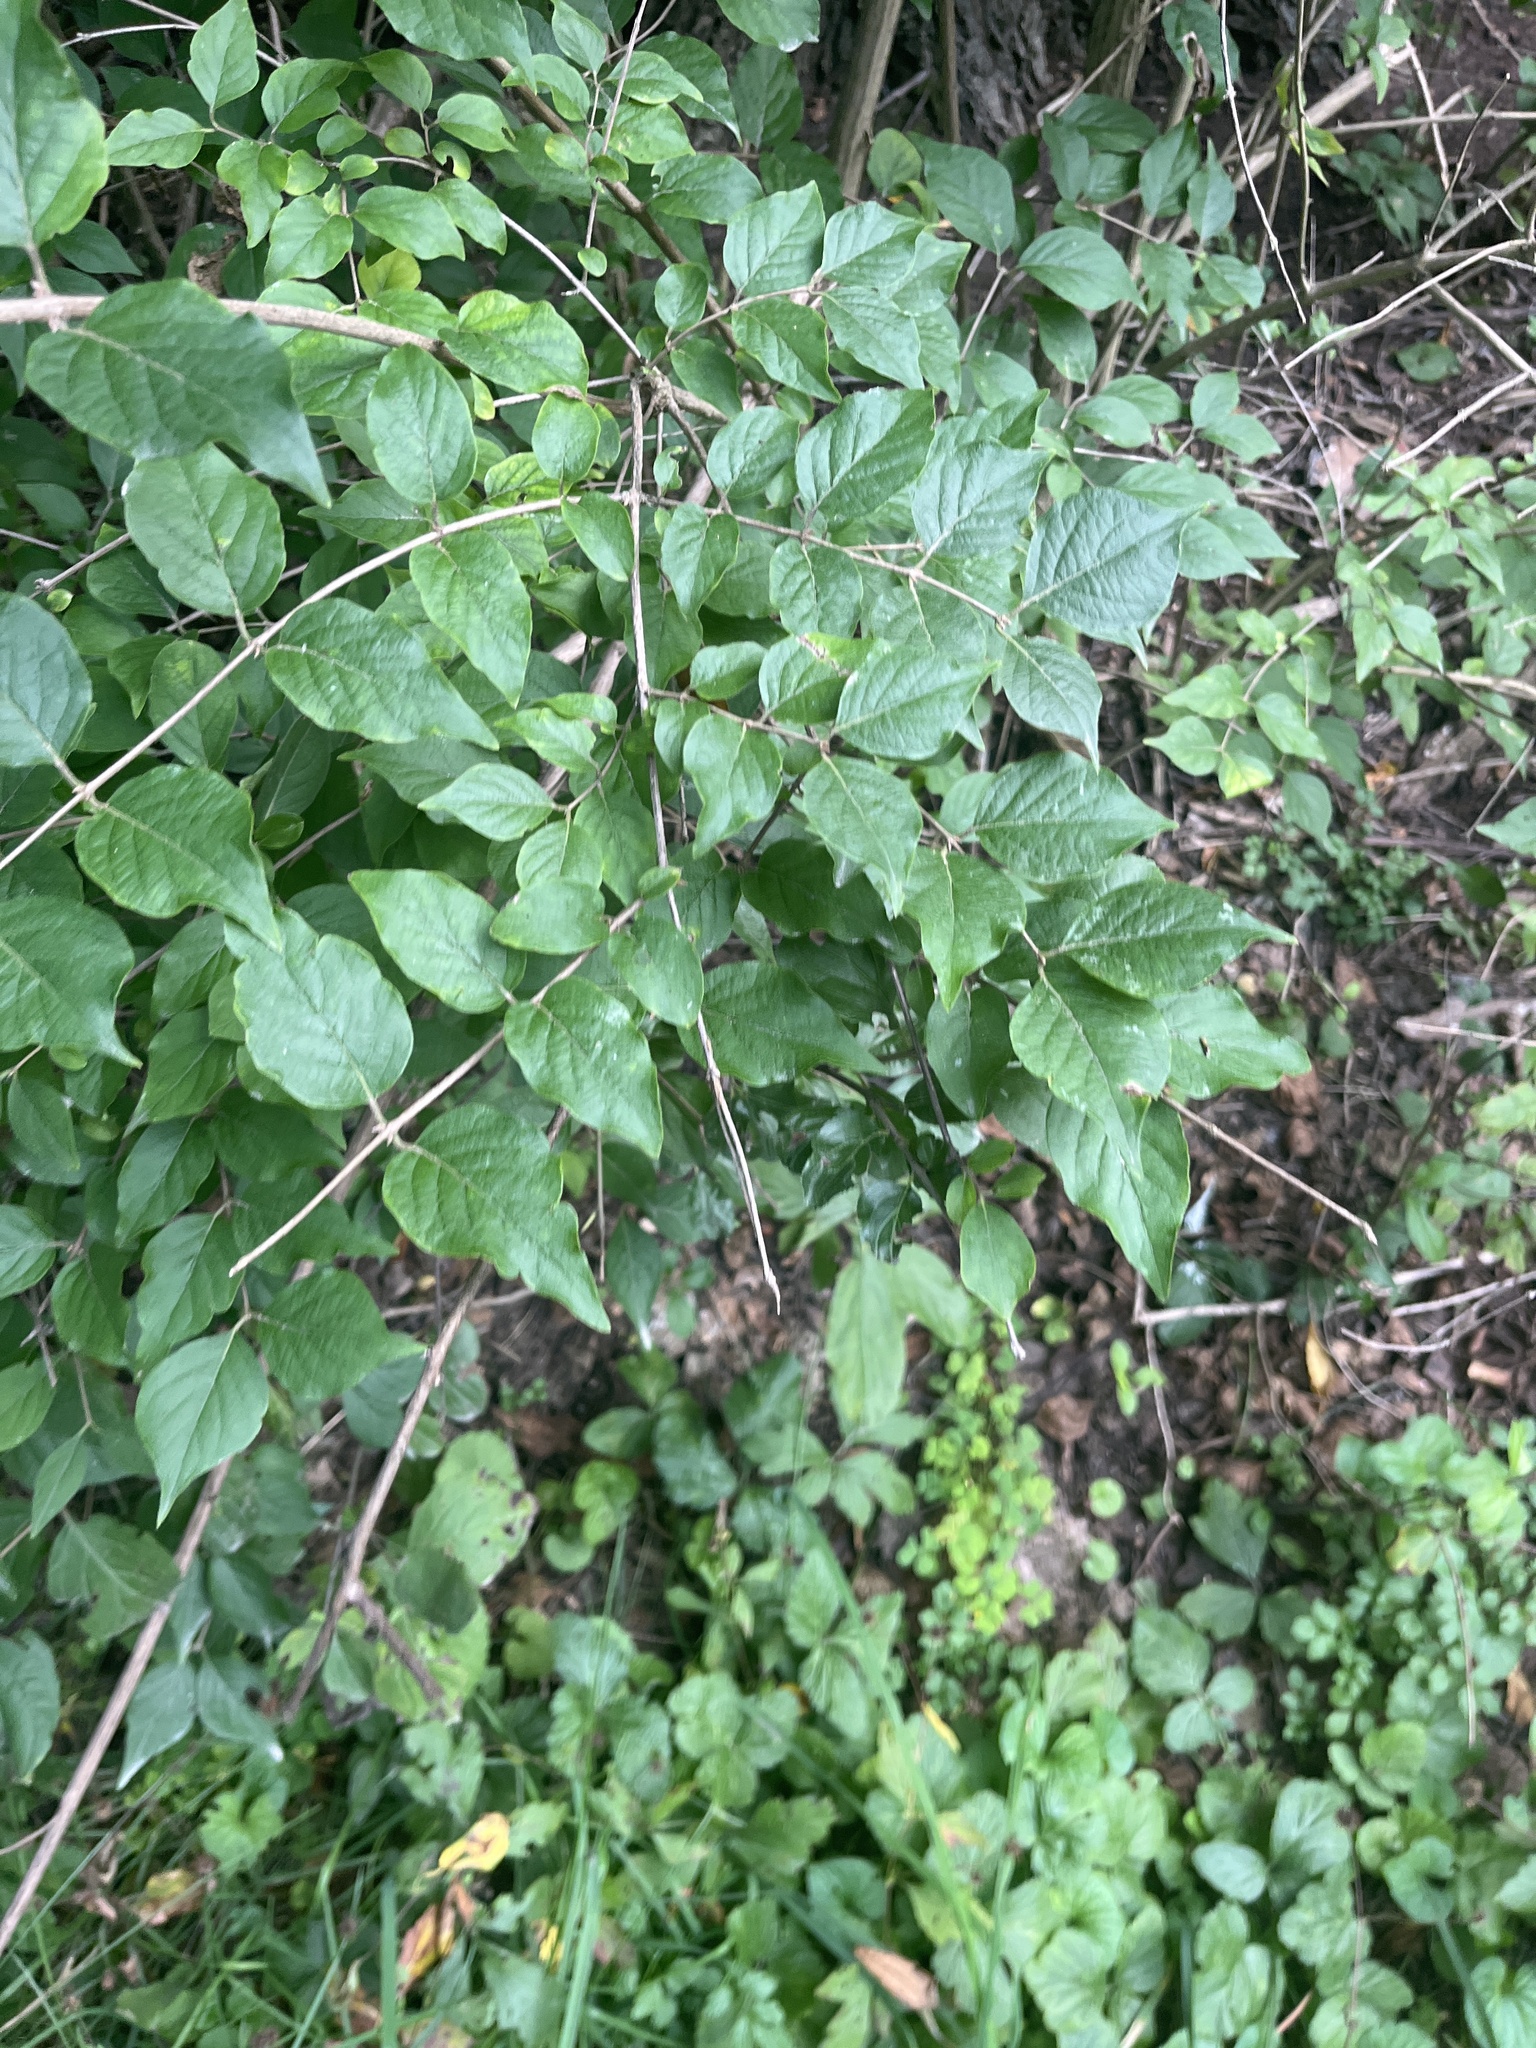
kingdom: Plantae
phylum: Tracheophyta
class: Magnoliopsida
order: Dipsacales
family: Caprifoliaceae
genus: Lonicera
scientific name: Lonicera maackii
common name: Amur honeysuckle
